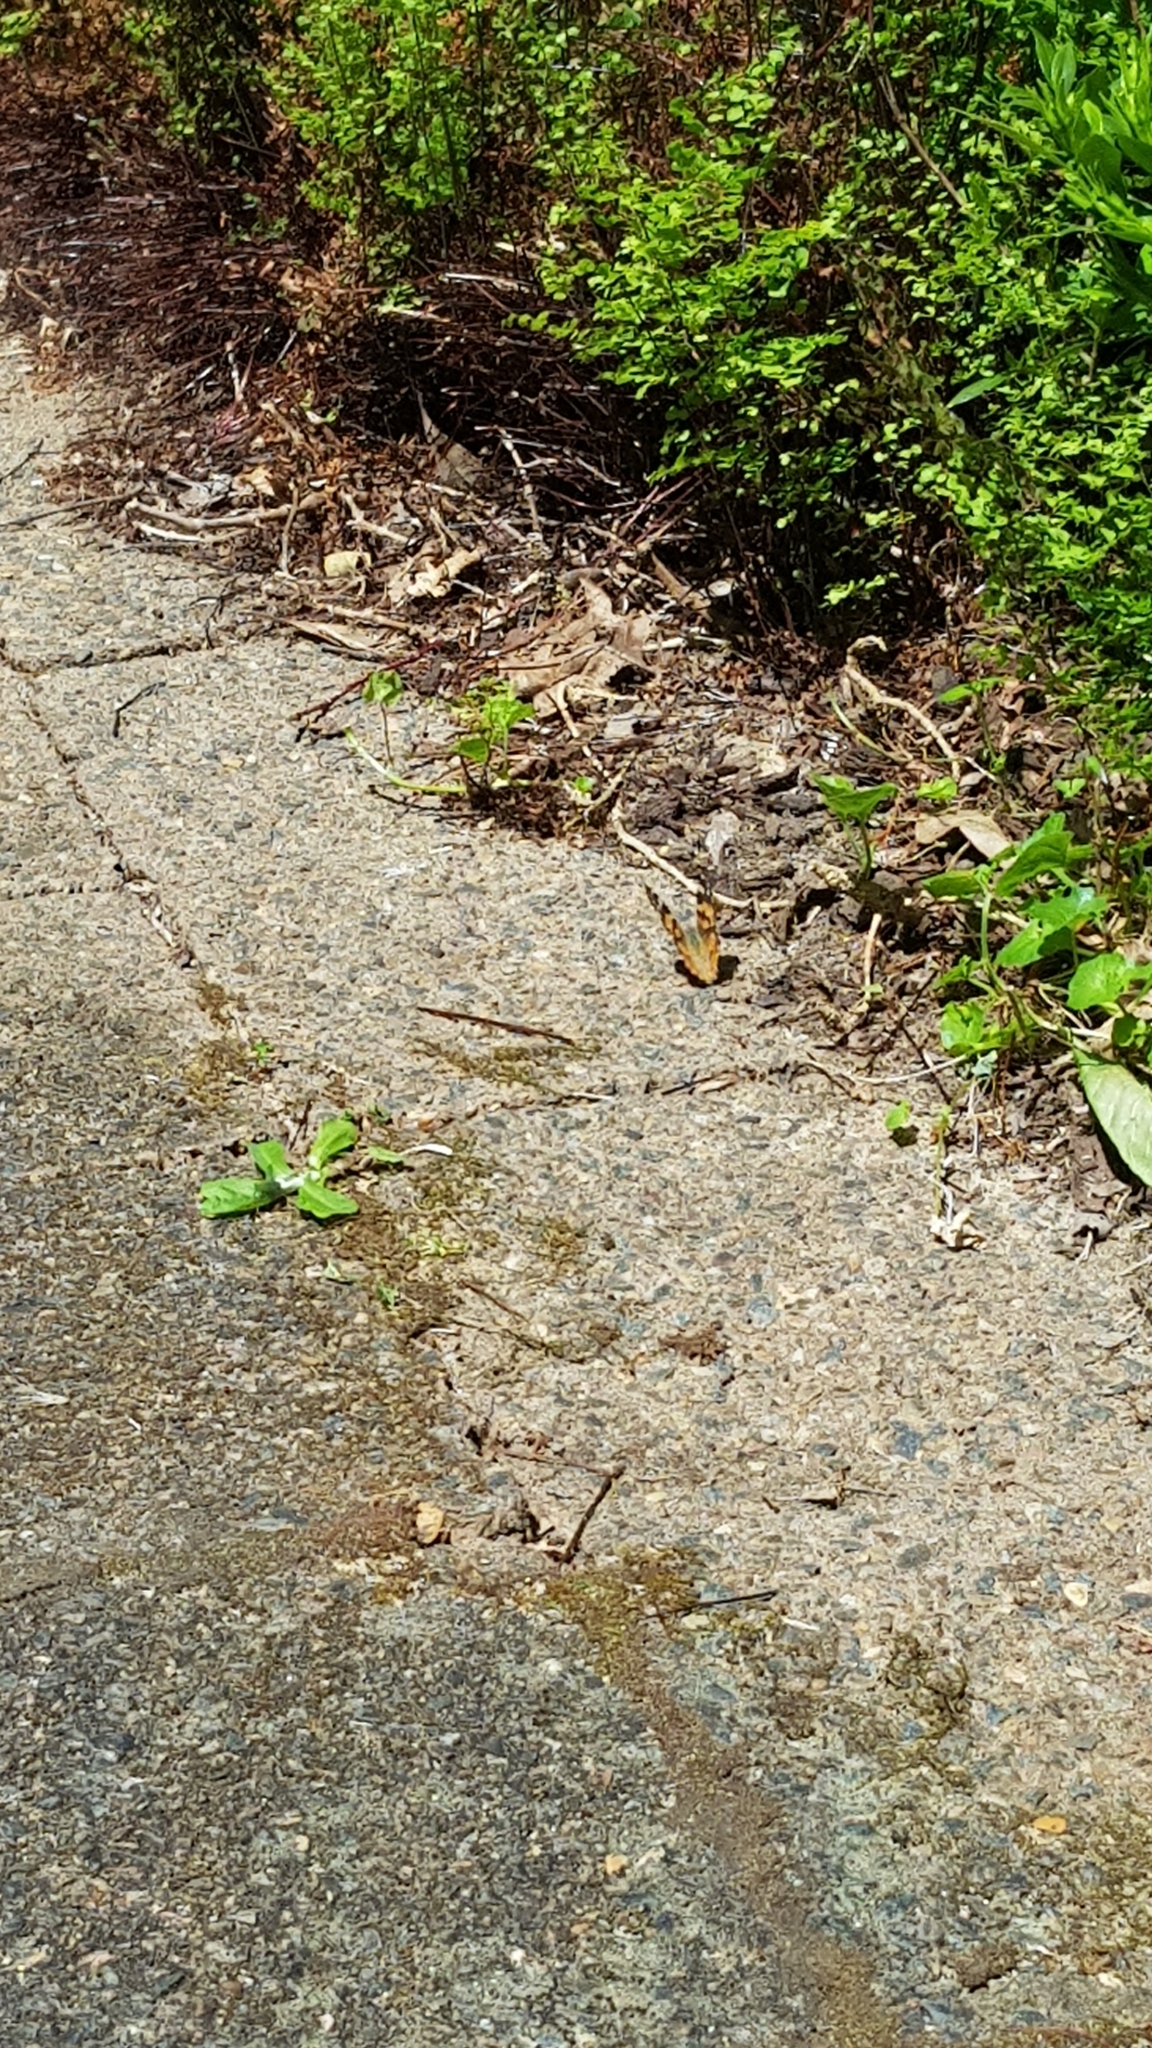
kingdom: Animalia
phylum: Arthropoda
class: Insecta
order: Lepidoptera
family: Nymphalidae
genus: Vanessa
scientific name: Vanessa kershawi
